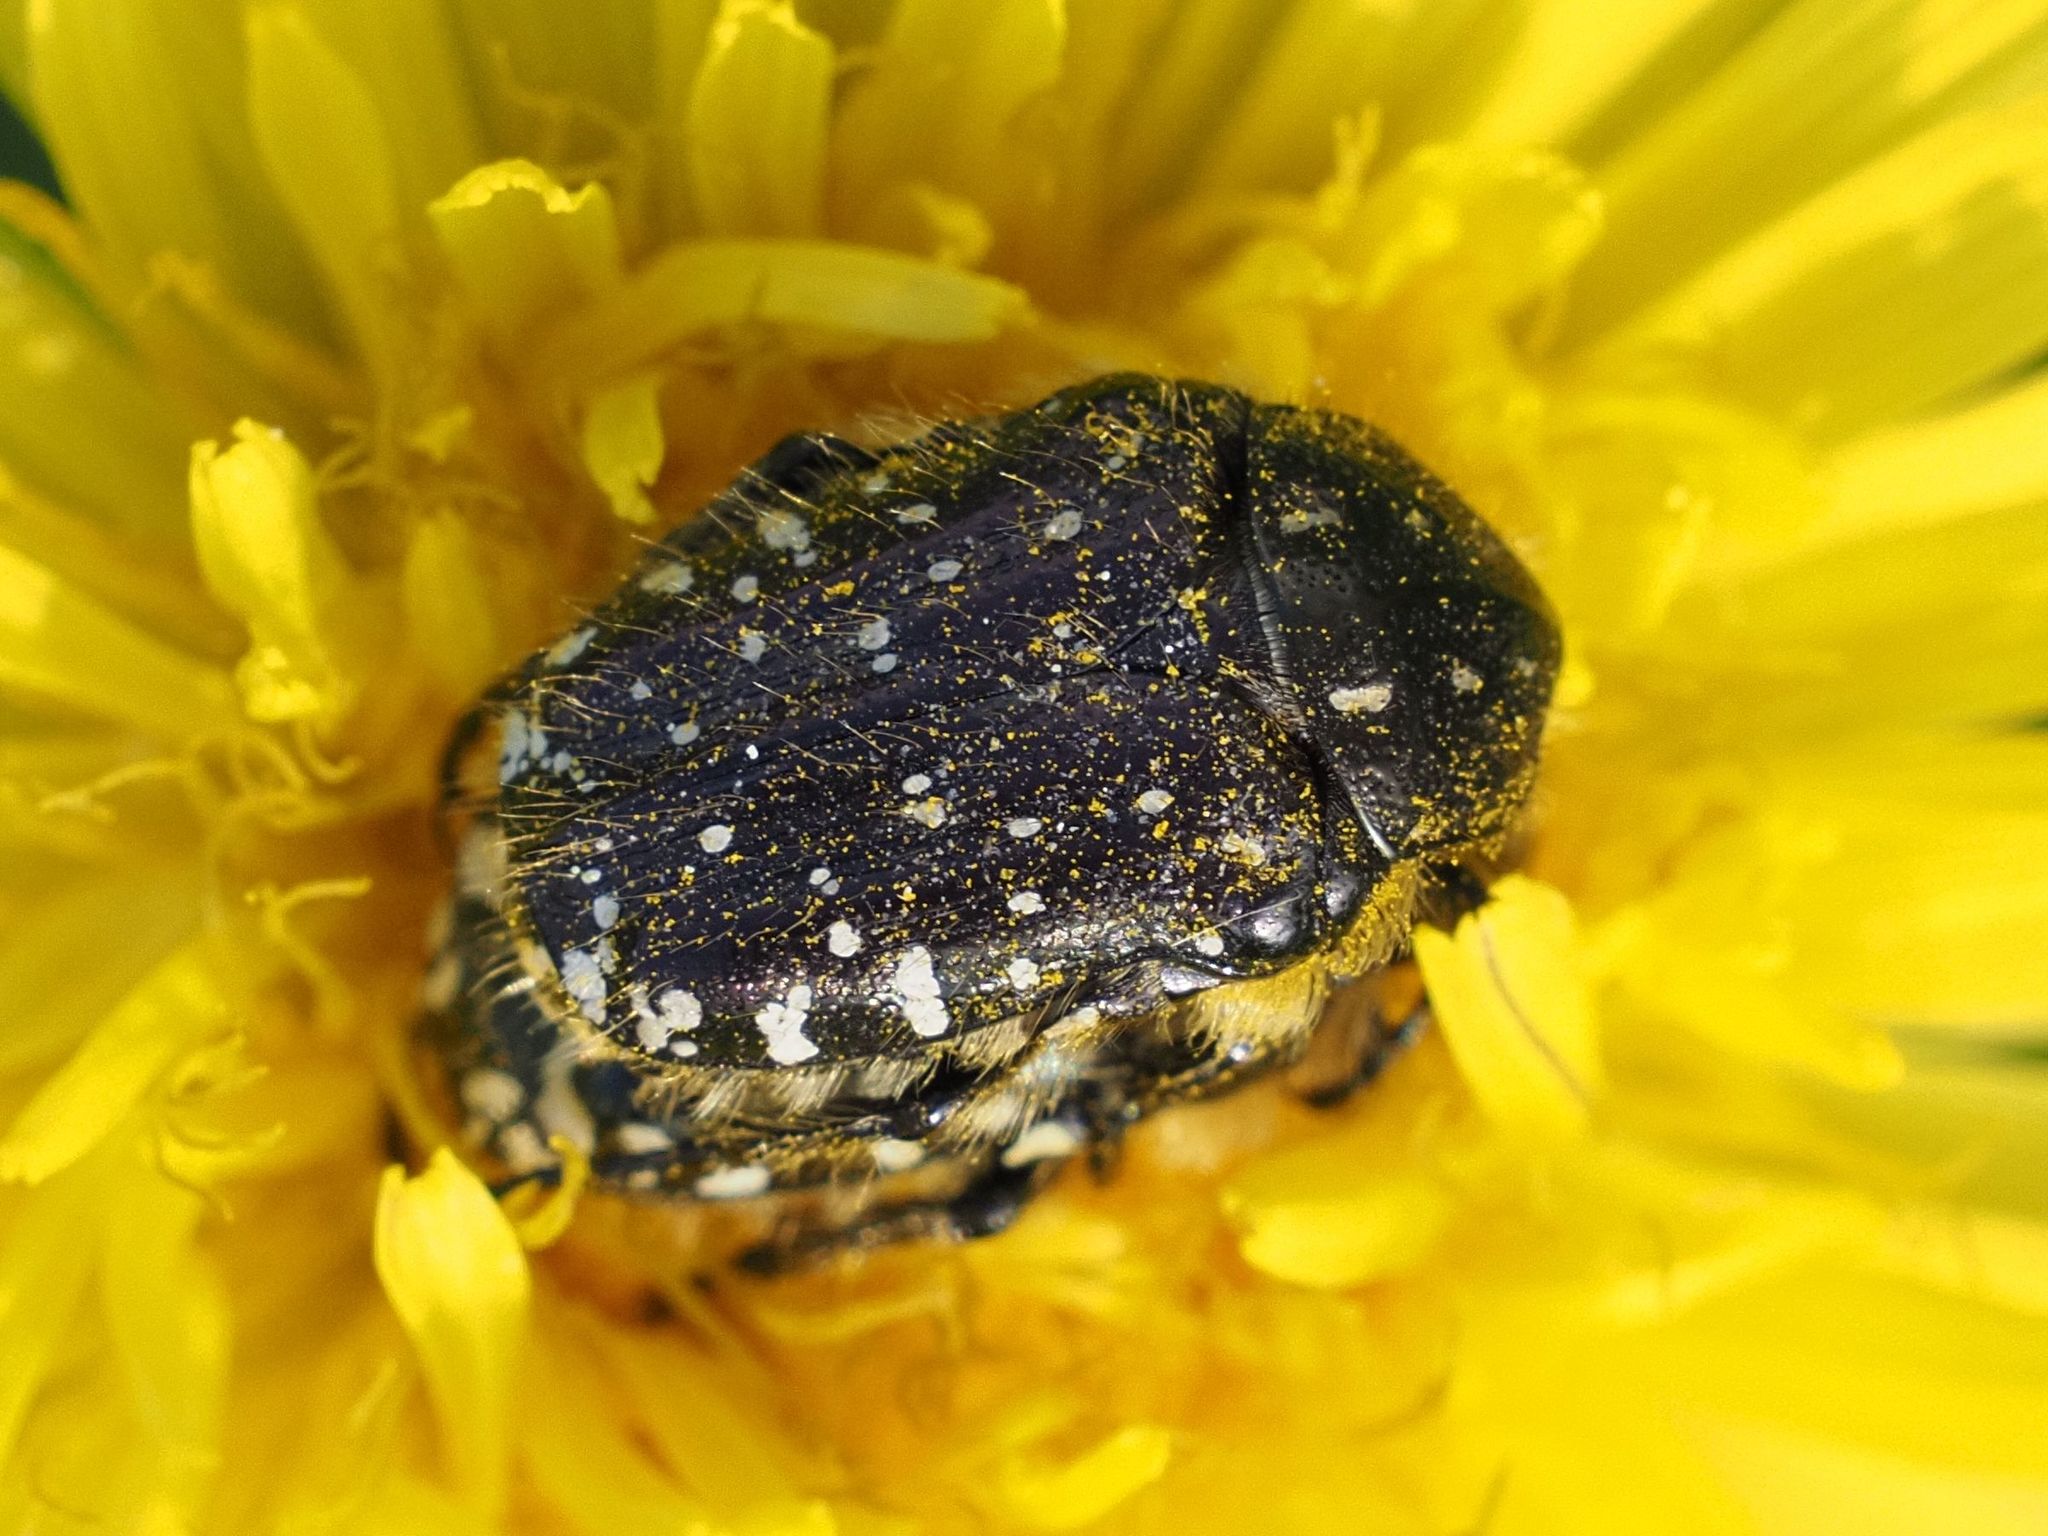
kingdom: Animalia
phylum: Arthropoda
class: Insecta
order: Coleoptera
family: Scarabaeidae
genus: Oxythyrea
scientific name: Oxythyrea funesta
